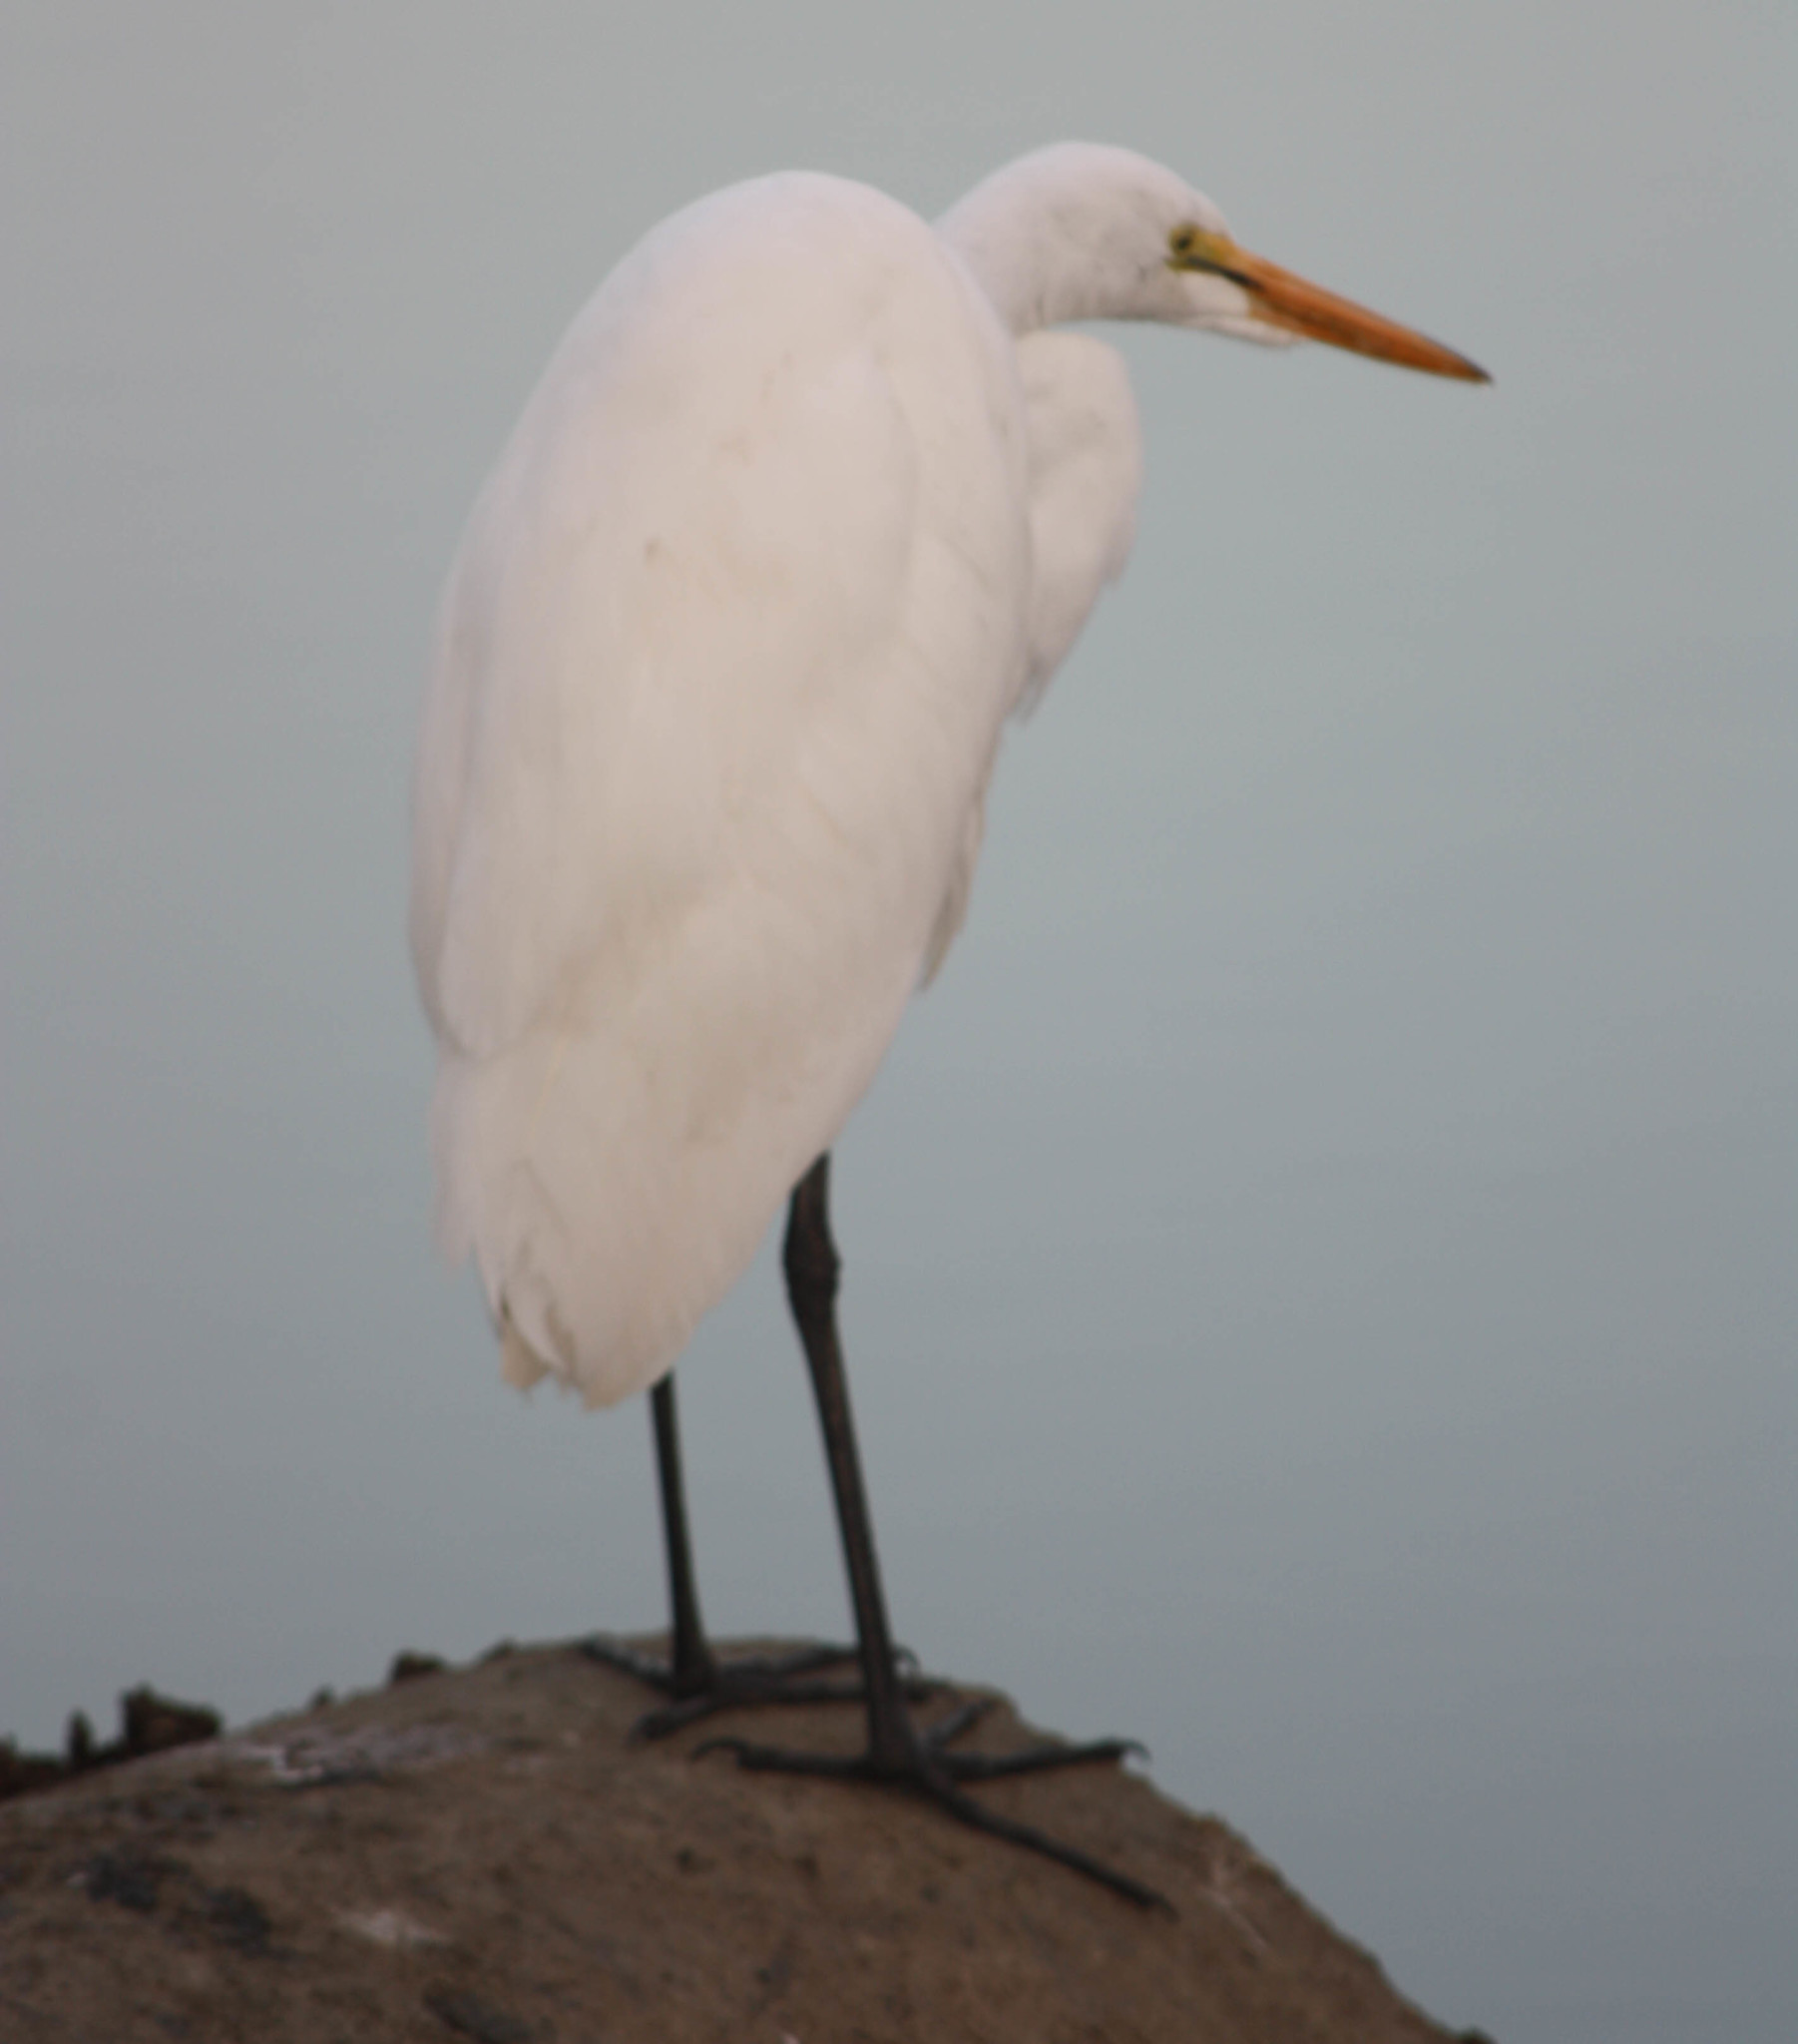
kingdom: Animalia
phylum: Chordata
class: Aves
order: Pelecaniformes
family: Ardeidae
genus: Ardea
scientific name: Ardea alba
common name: Great egret
